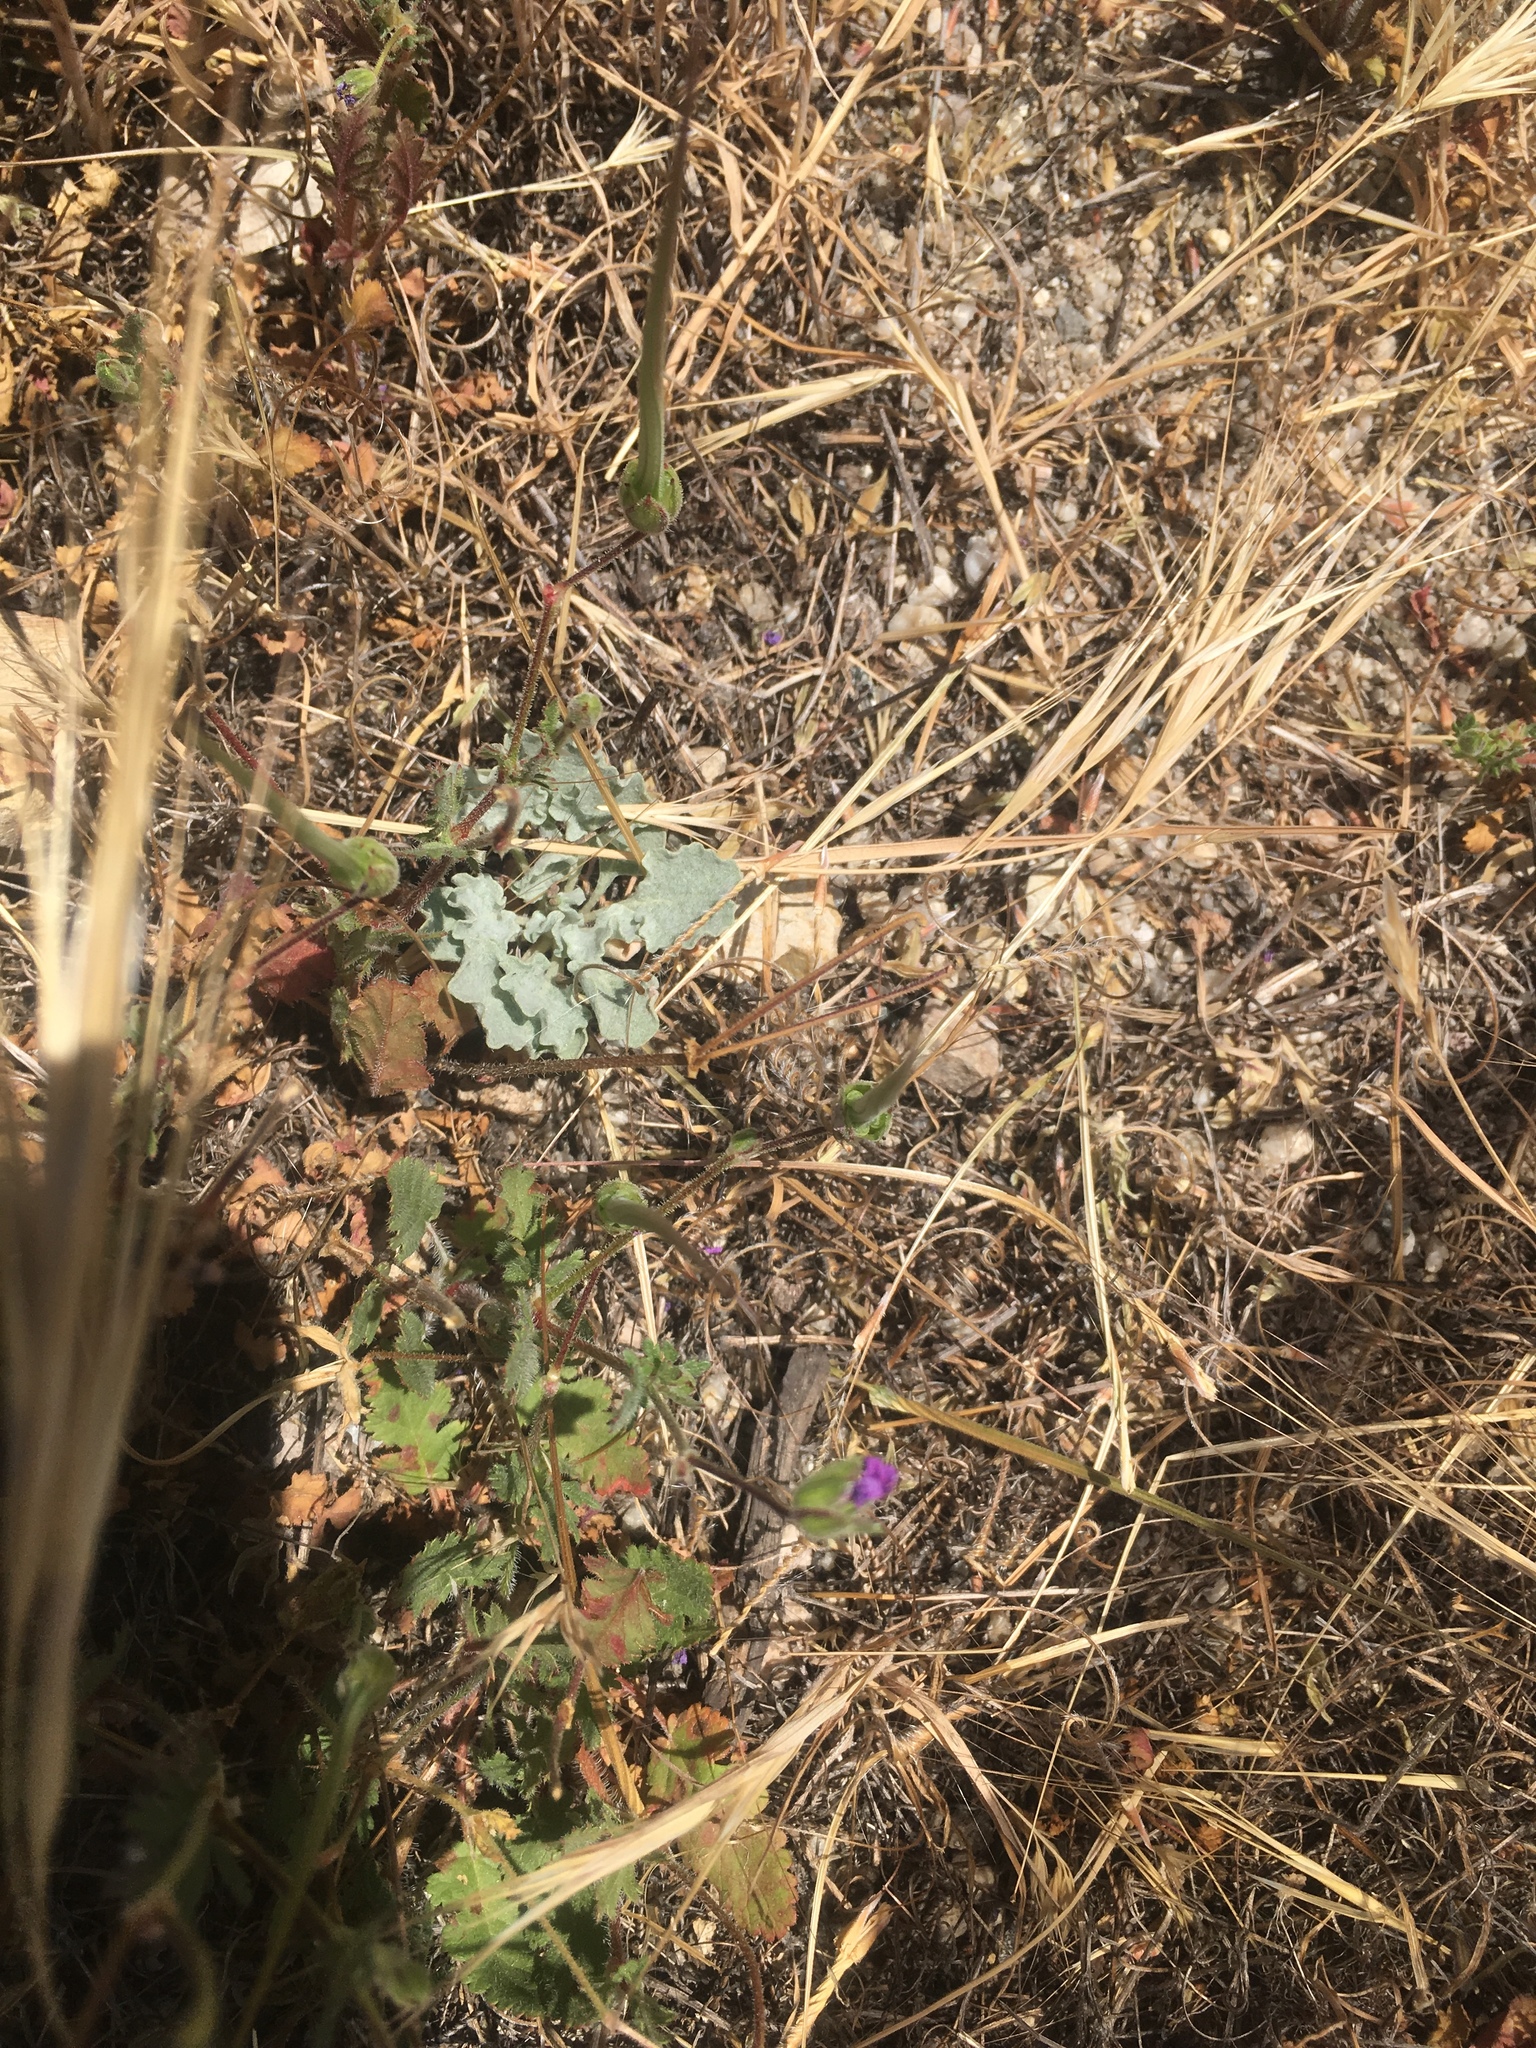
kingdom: Plantae
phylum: Tracheophyta
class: Magnoliopsida
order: Caryophyllales
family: Polygonaceae
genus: Eriogonum
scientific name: Eriogonum elegans
